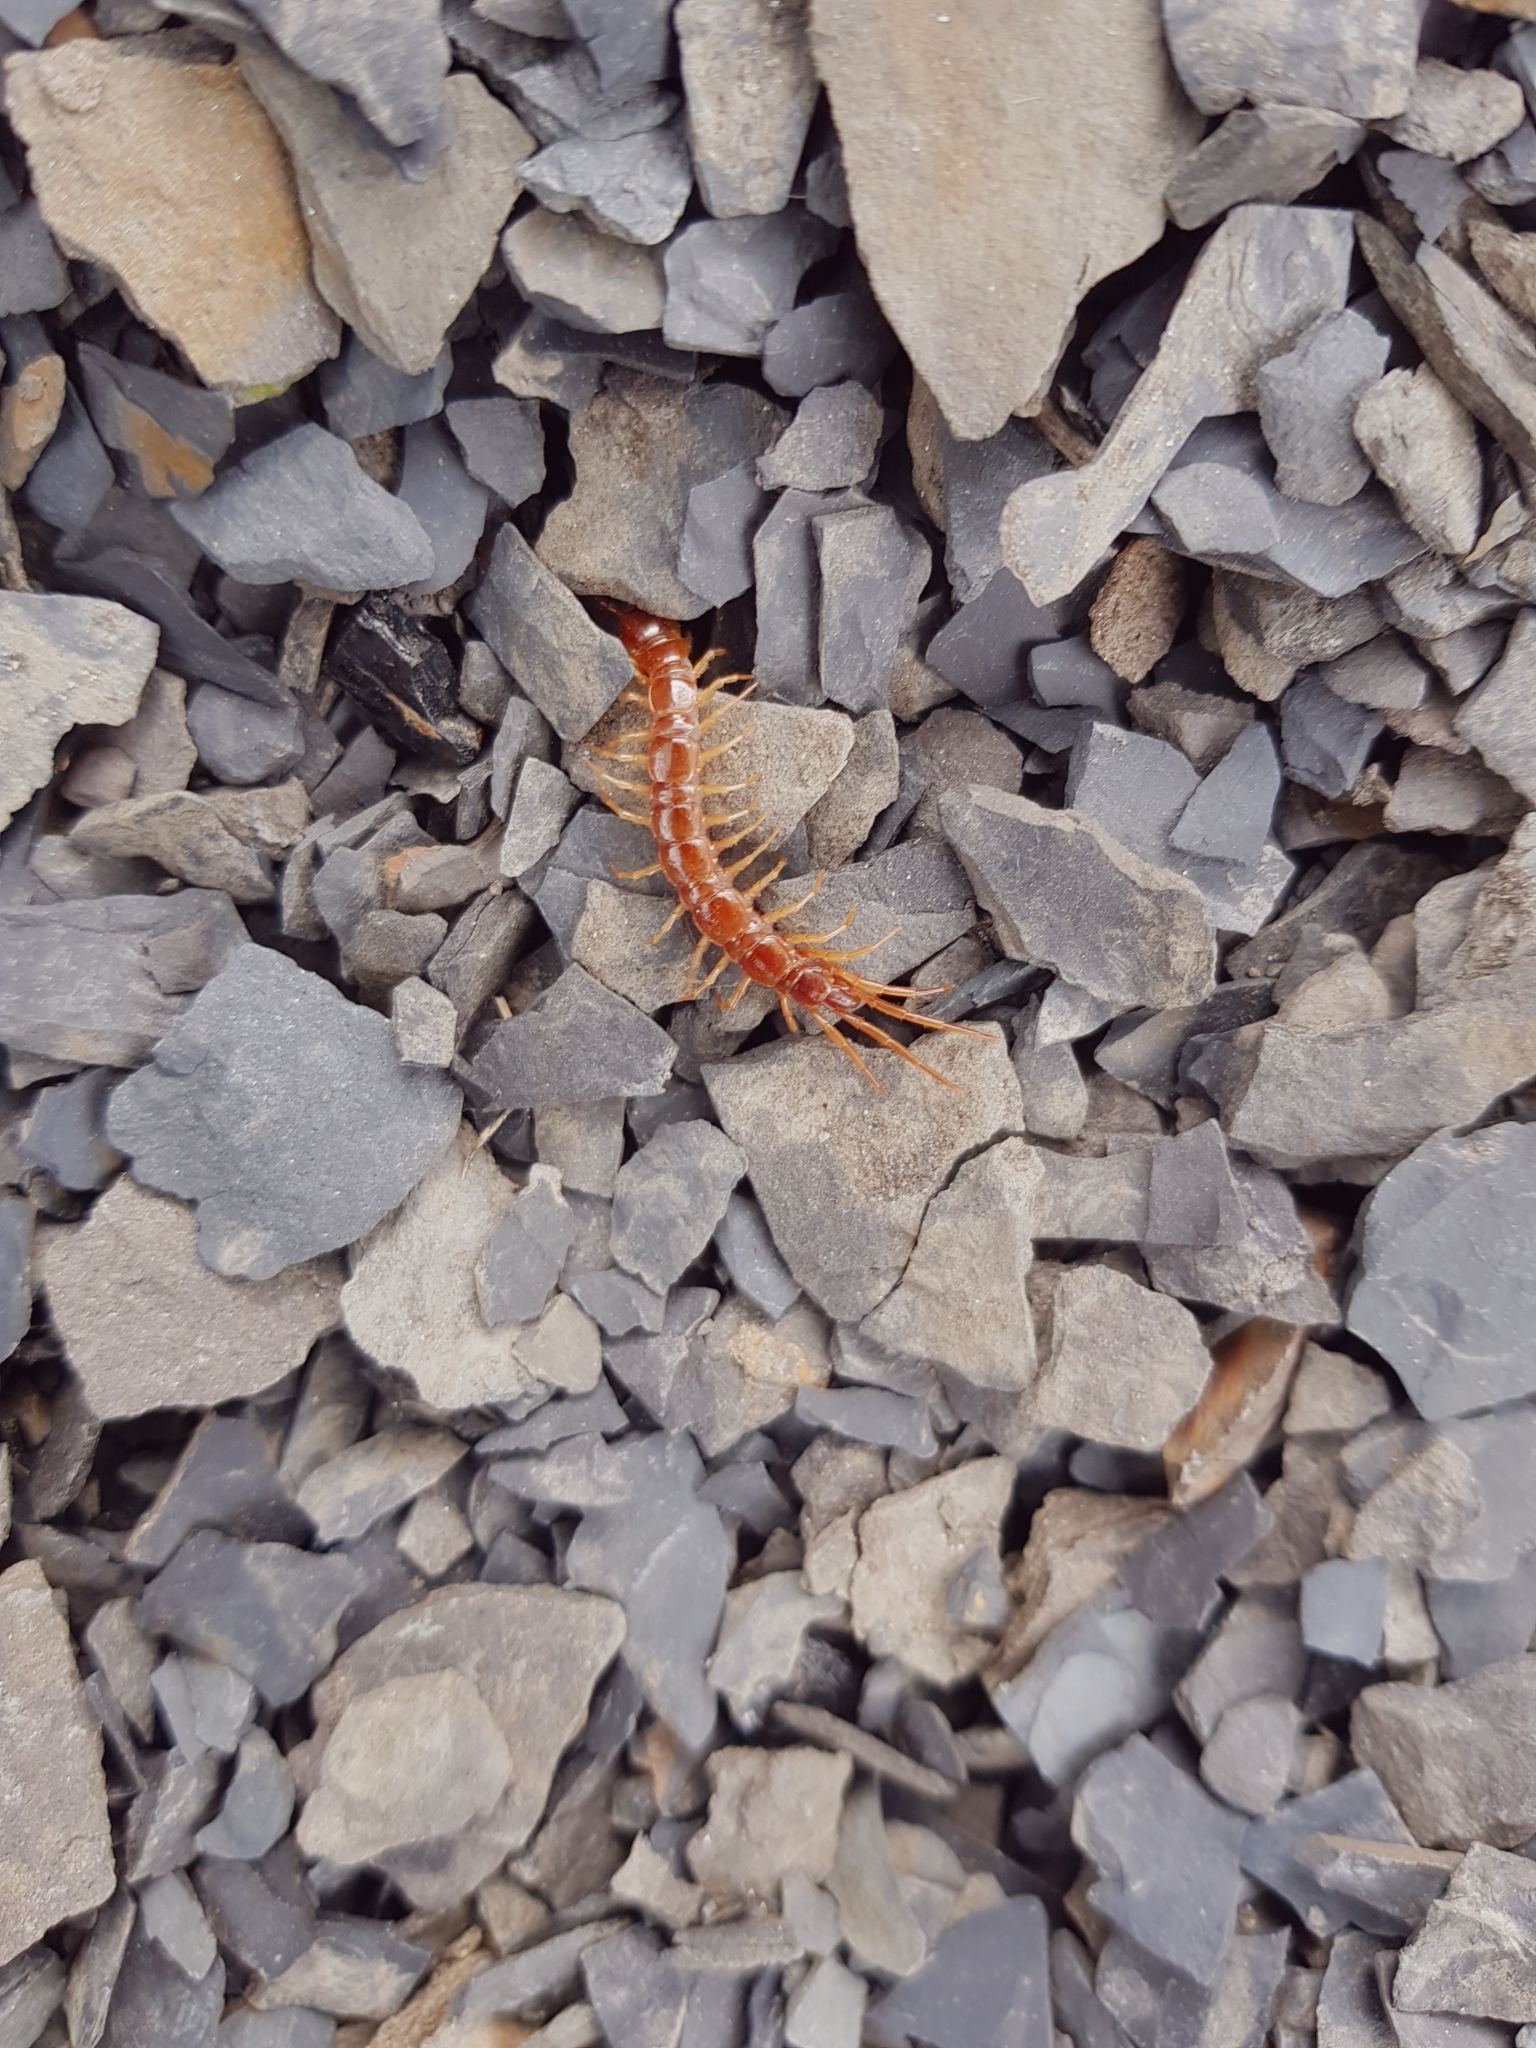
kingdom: Animalia
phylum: Arthropoda
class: Chilopoda
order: Lithobiomorpha
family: Lithobiidae
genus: Lithobius
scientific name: Lithobius forficatus
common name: Centipede
